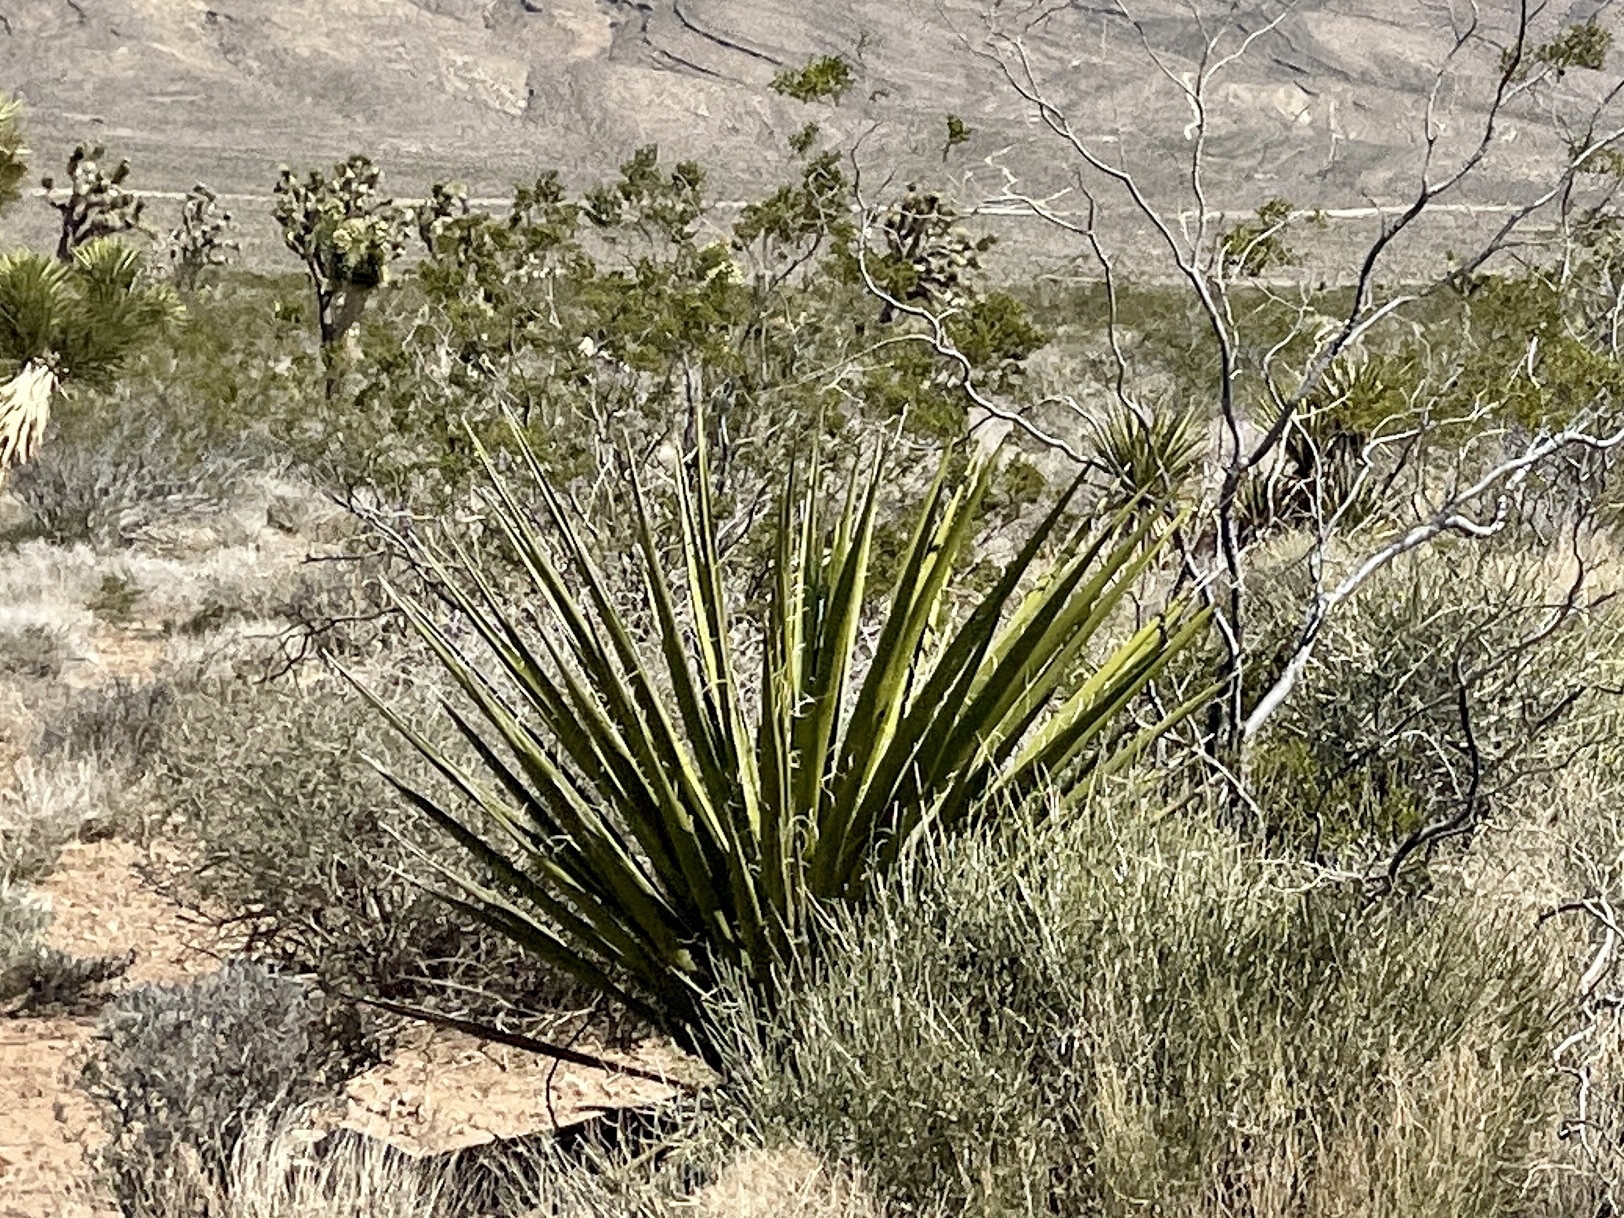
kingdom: Plantae
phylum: Tracheophyta
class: Liliopsida
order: Asparagales
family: Asparagaceae
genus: Yucca
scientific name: Yucca schidigera
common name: Mojave yucca
